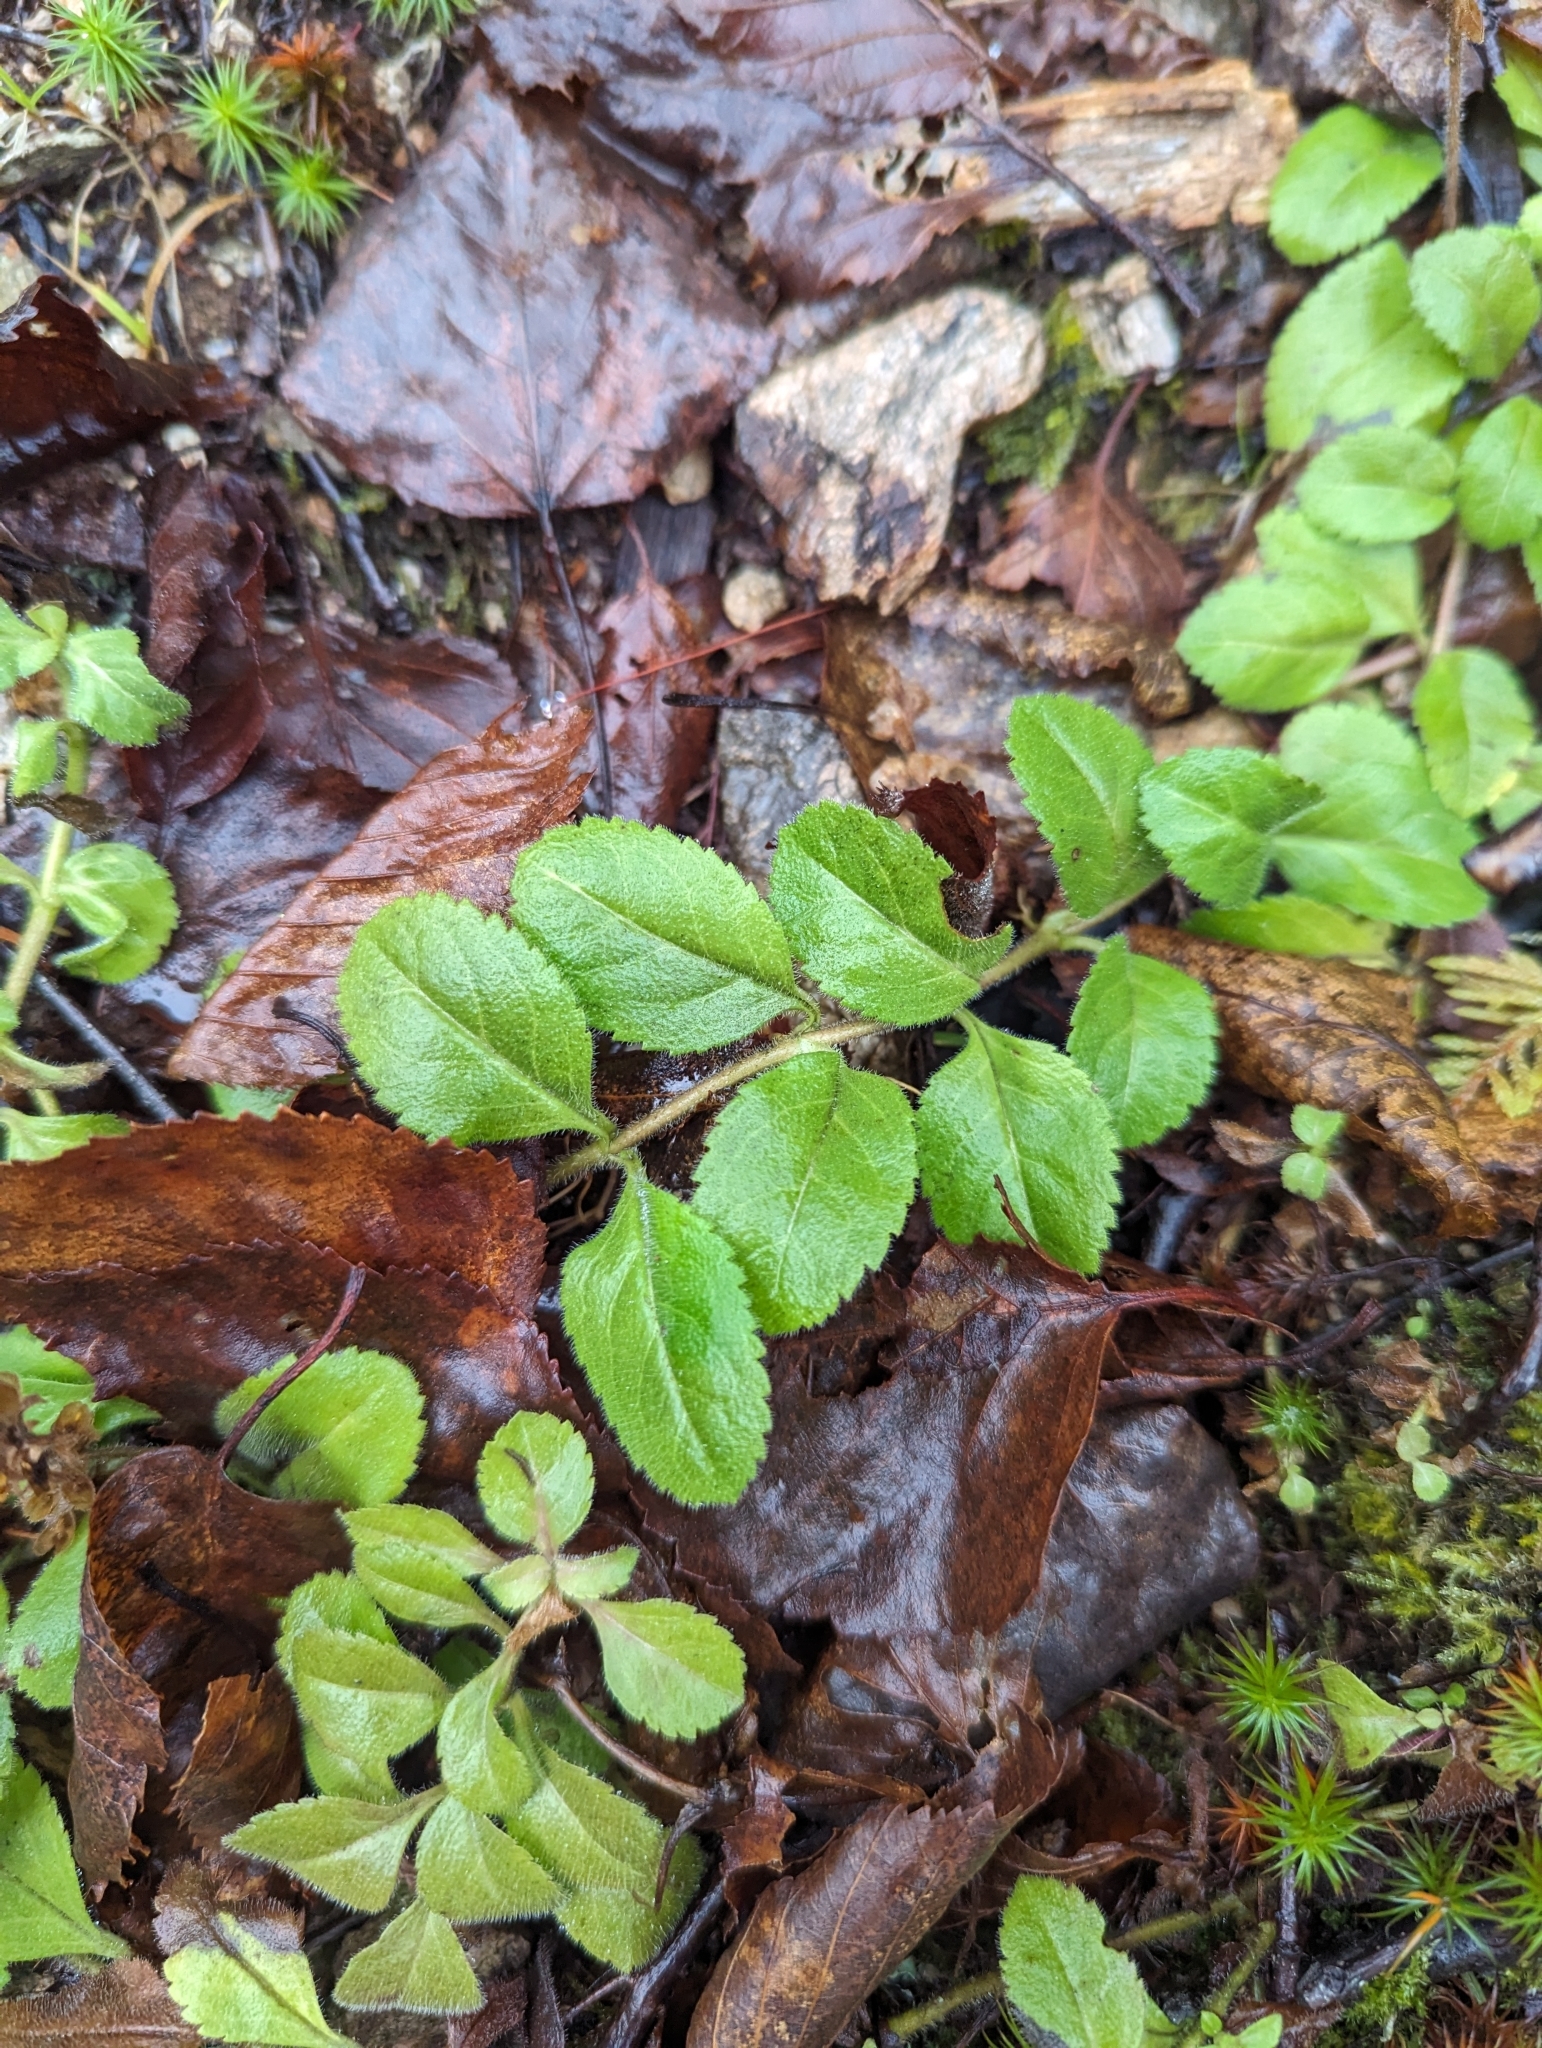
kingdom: Plantae
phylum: Tracheophyta
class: Magnoliopsida
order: Lamiales
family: Plantaginaceae
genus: Veronica
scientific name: Veronica officinalis
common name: Common speedwell
